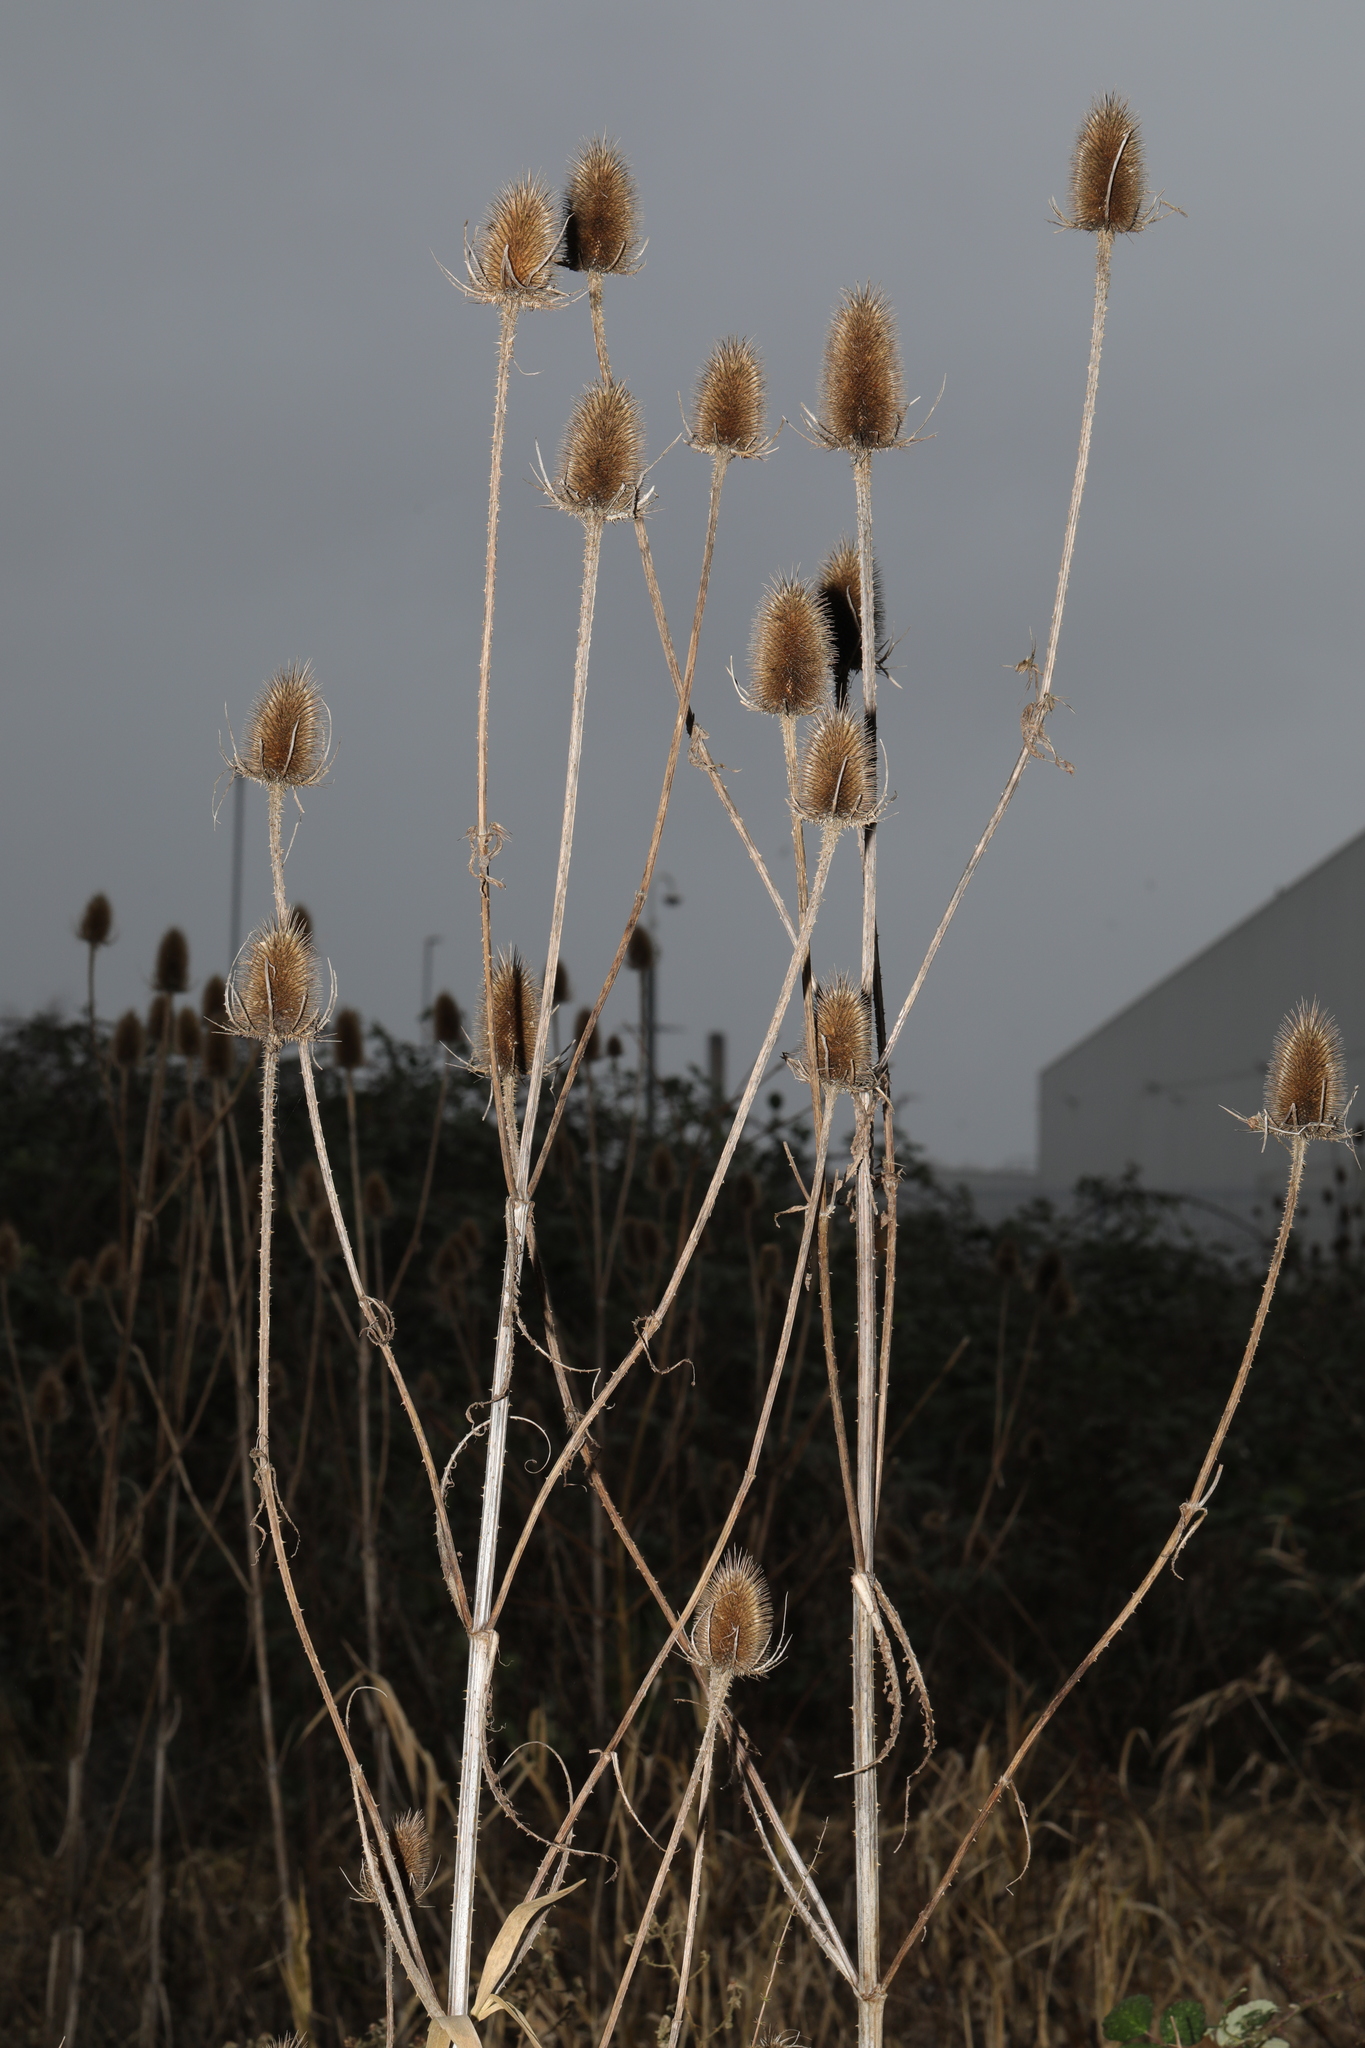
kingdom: Plantae
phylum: Tracheophyta
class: Magnoliopsida
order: Dipsacales
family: Caprifoliaceae
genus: Dipsacus
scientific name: Dipsacus fullonum
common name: Teasel
